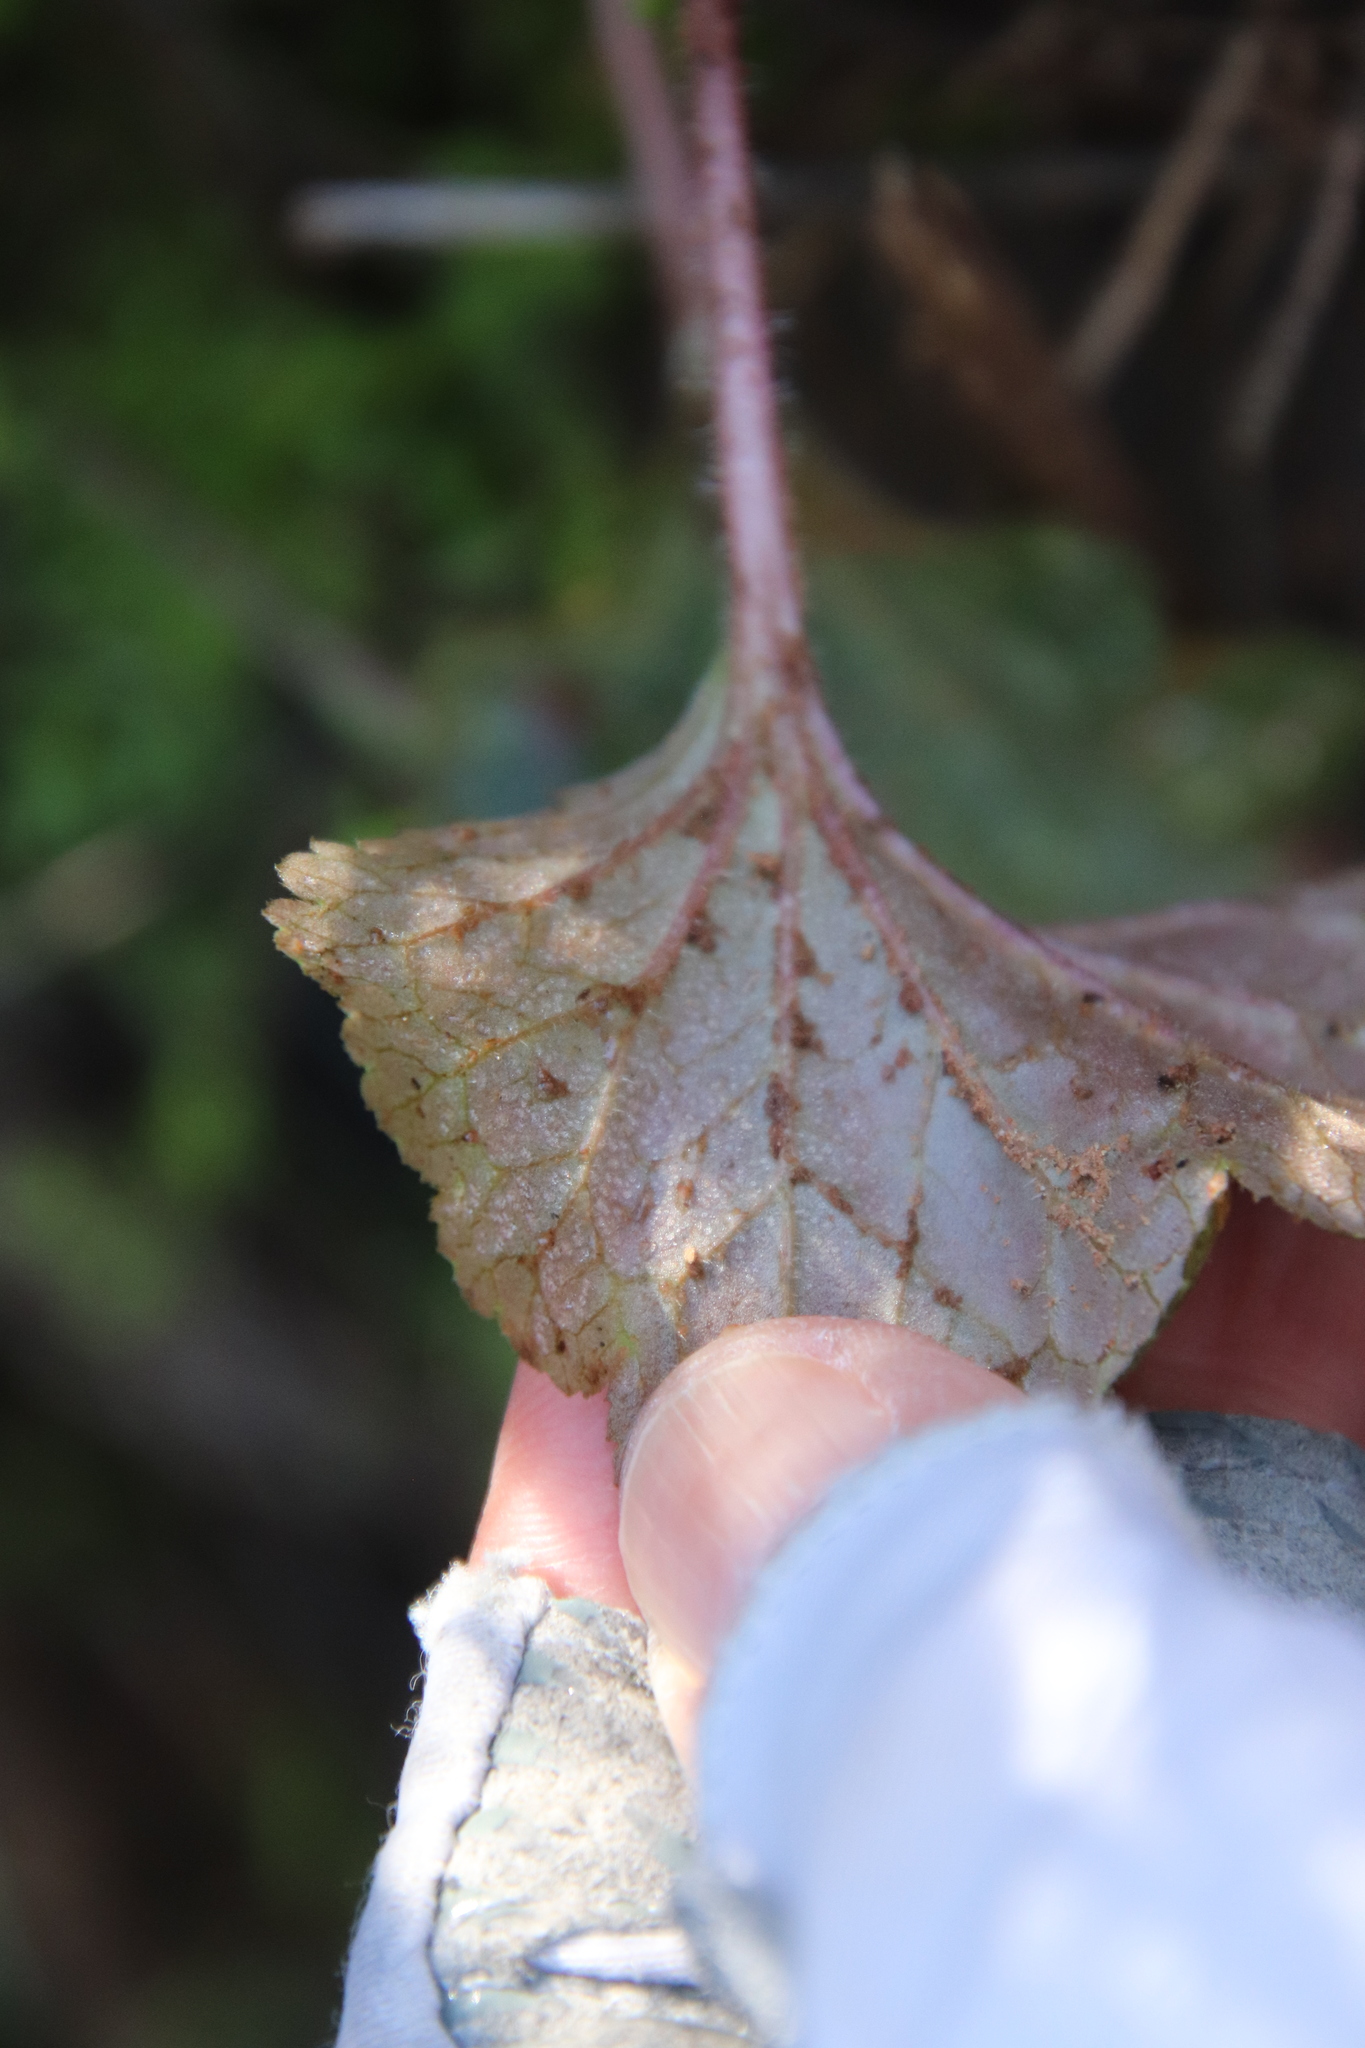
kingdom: Plantae
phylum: Tracheophyta
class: Magnoliopsida
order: Saxifragales
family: Saxifragaceae
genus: Jepsonia
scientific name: Jepsonia parryi
